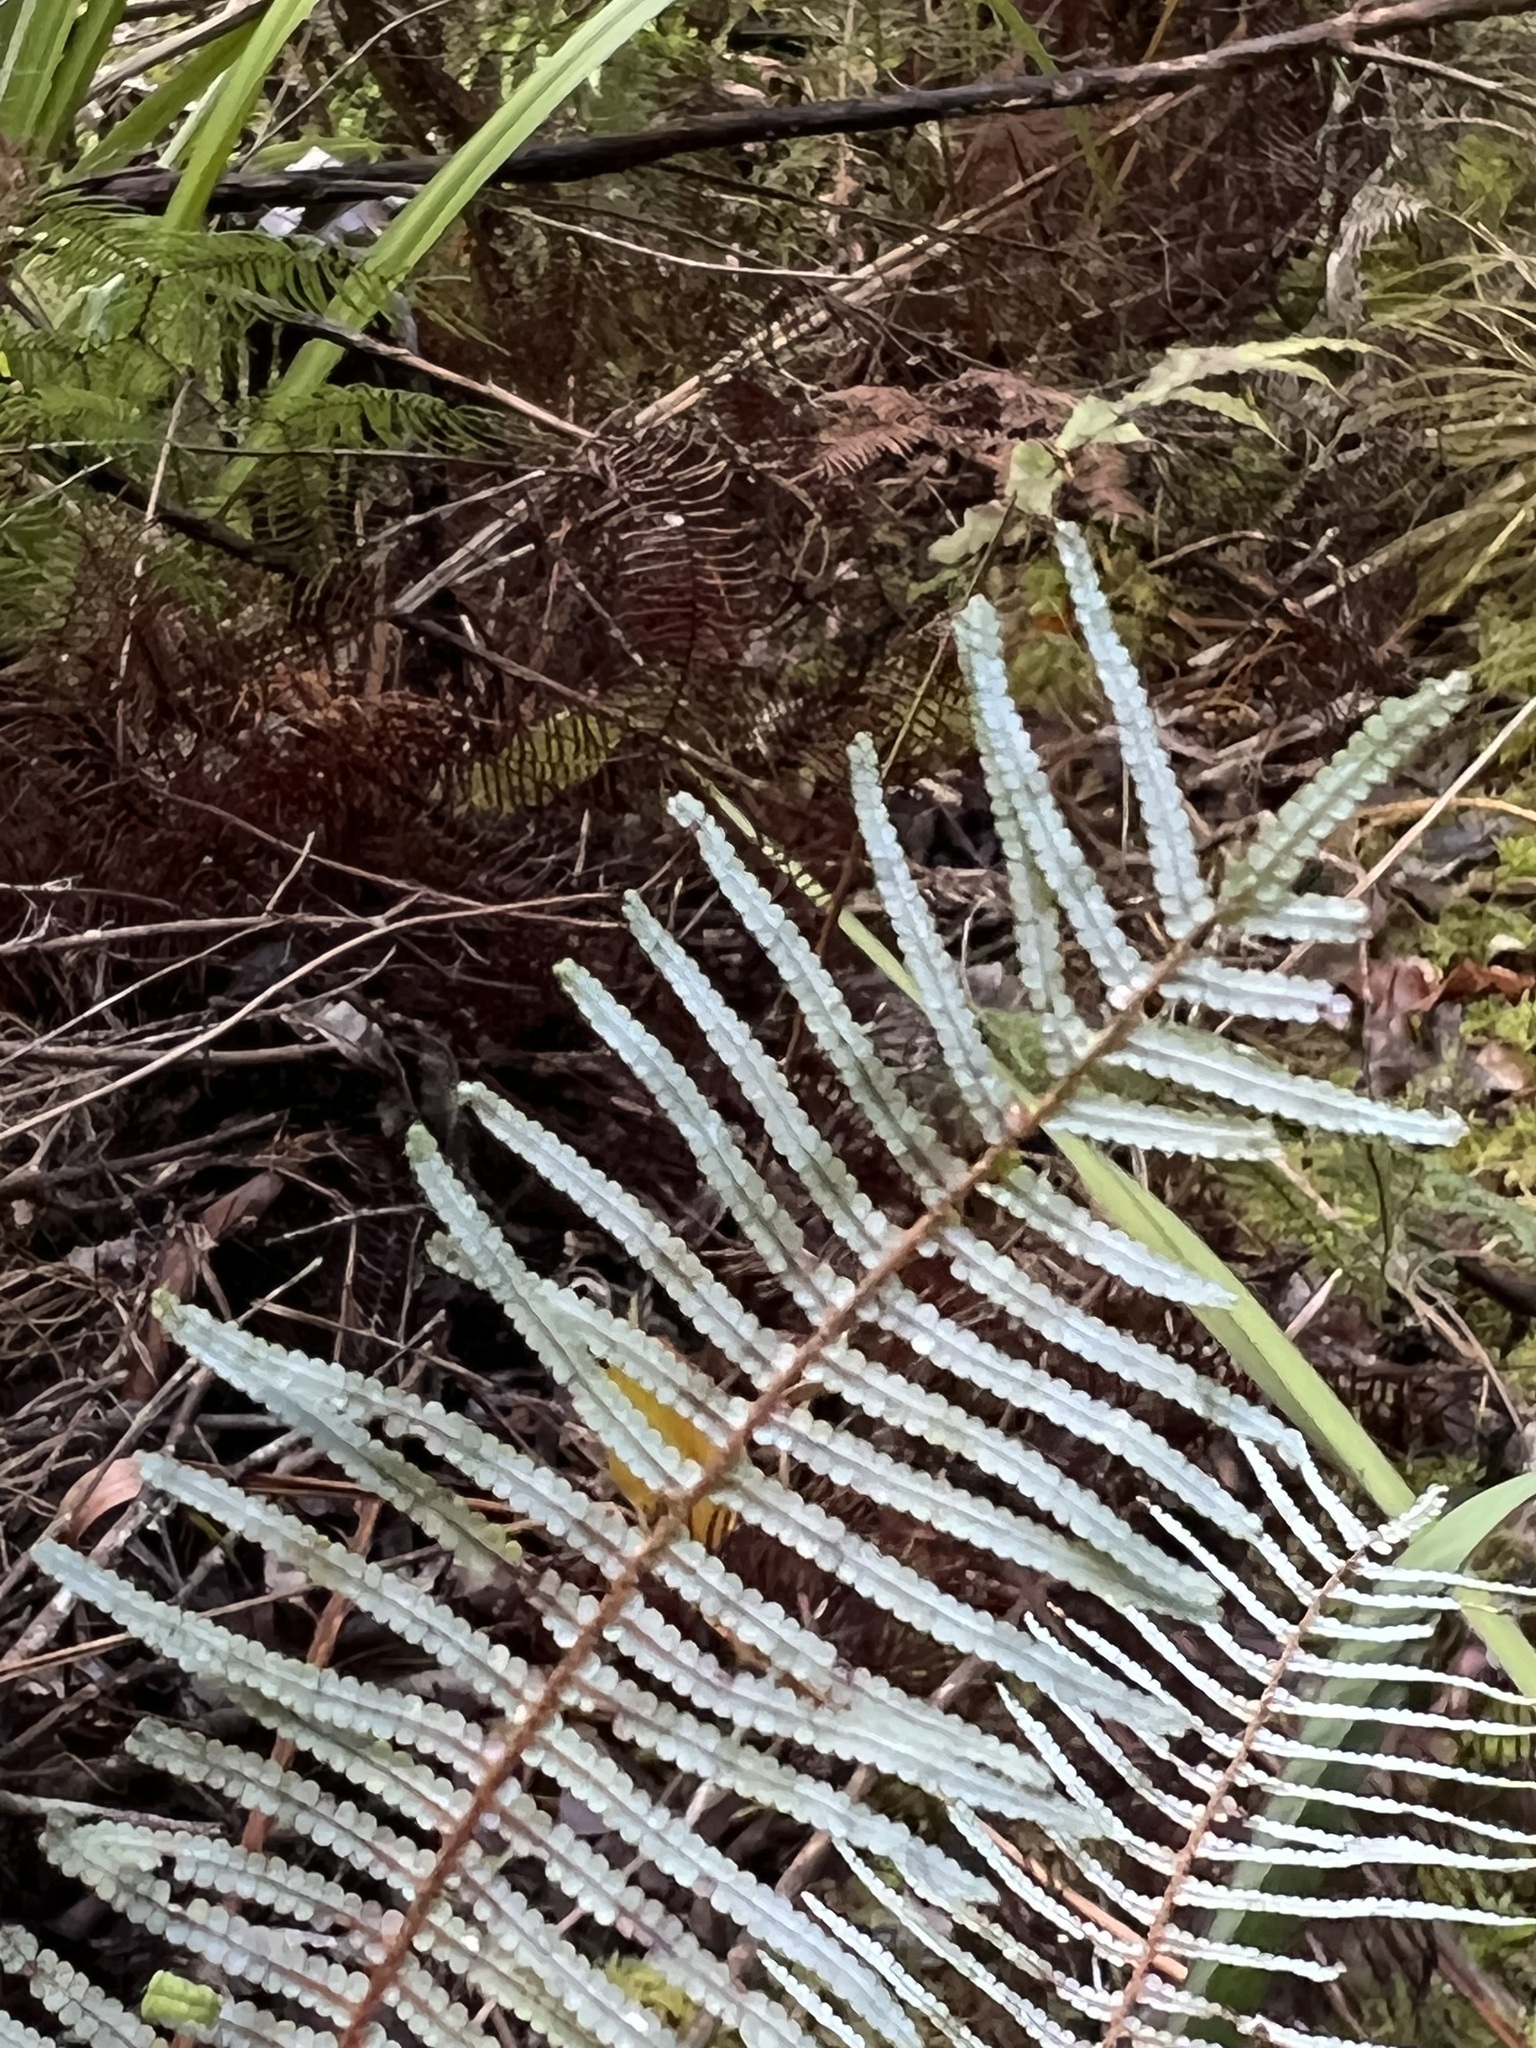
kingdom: Plantae
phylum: Tracheophyta
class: Polypodiopsida
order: Gleicheniales
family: Gleicheniaceae
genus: Gleichenia
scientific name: Gleichenia dicarpa
